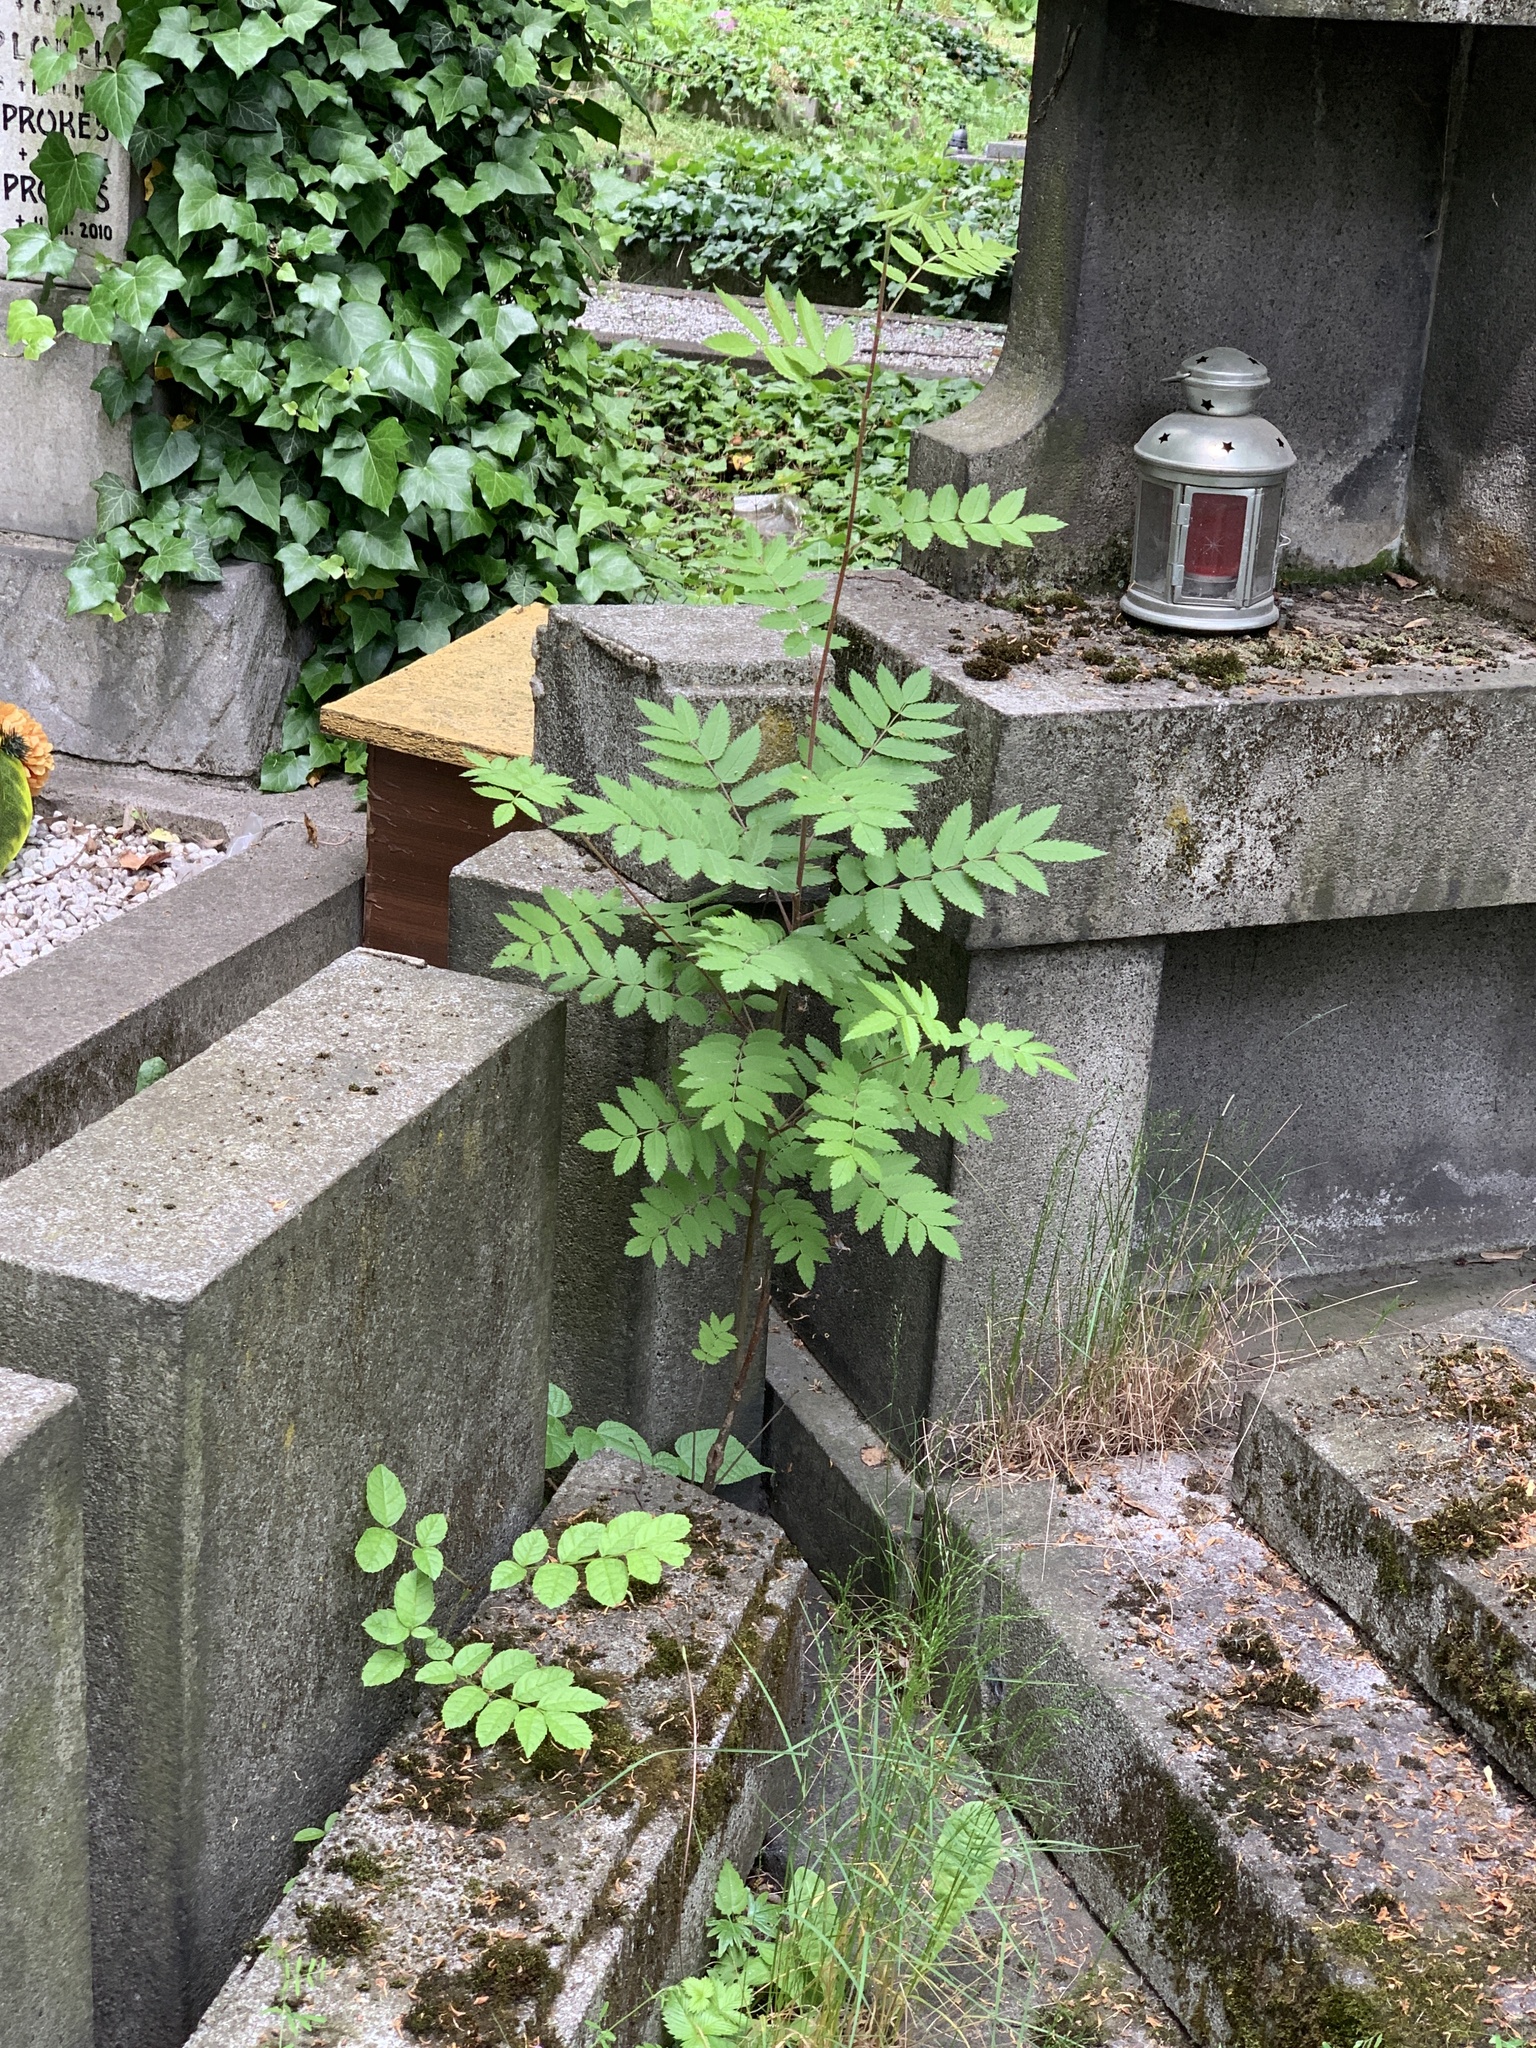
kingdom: Plantae
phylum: Tracheophyta
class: Magnoliopsida
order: Rosales
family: Rosaceae
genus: Sorbus
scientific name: Sorbus aucuparia
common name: Rowan
